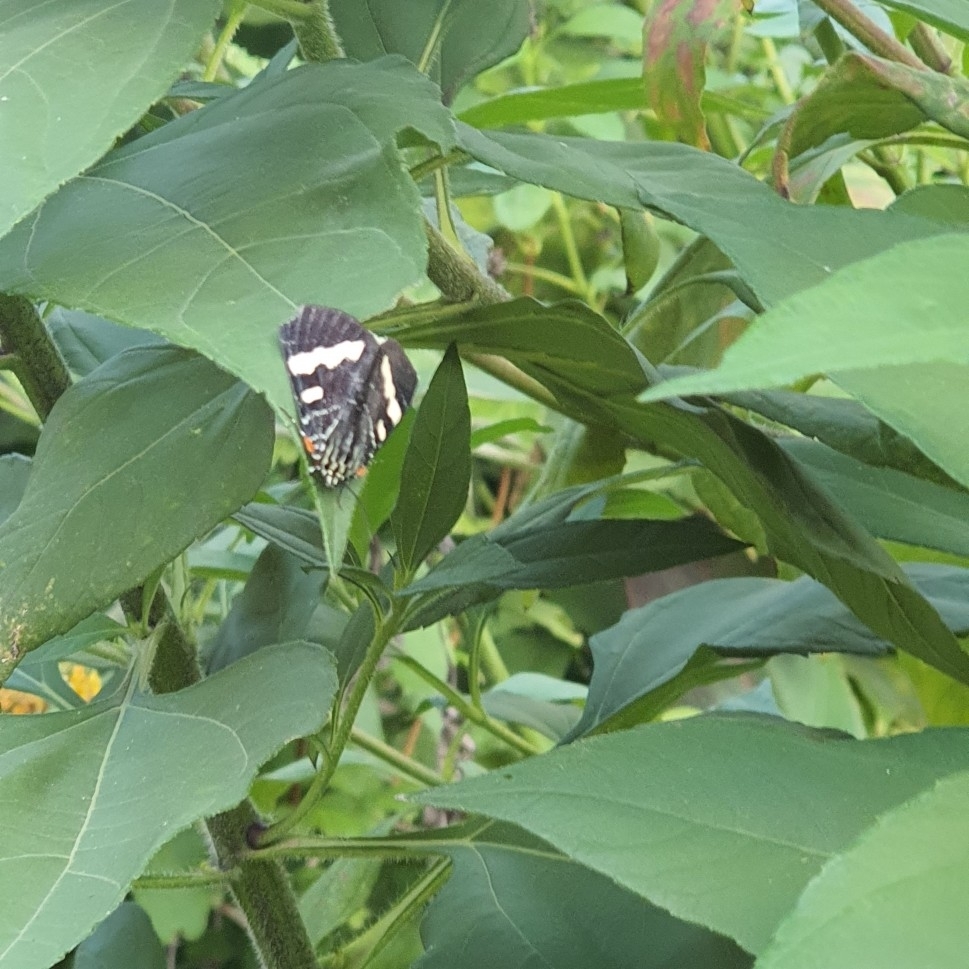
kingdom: Animalia
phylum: Arthropoda
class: Insecta
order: Lepidoptera
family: Noctuidae
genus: Phalaenoides
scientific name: Phalaenoides glycinae
